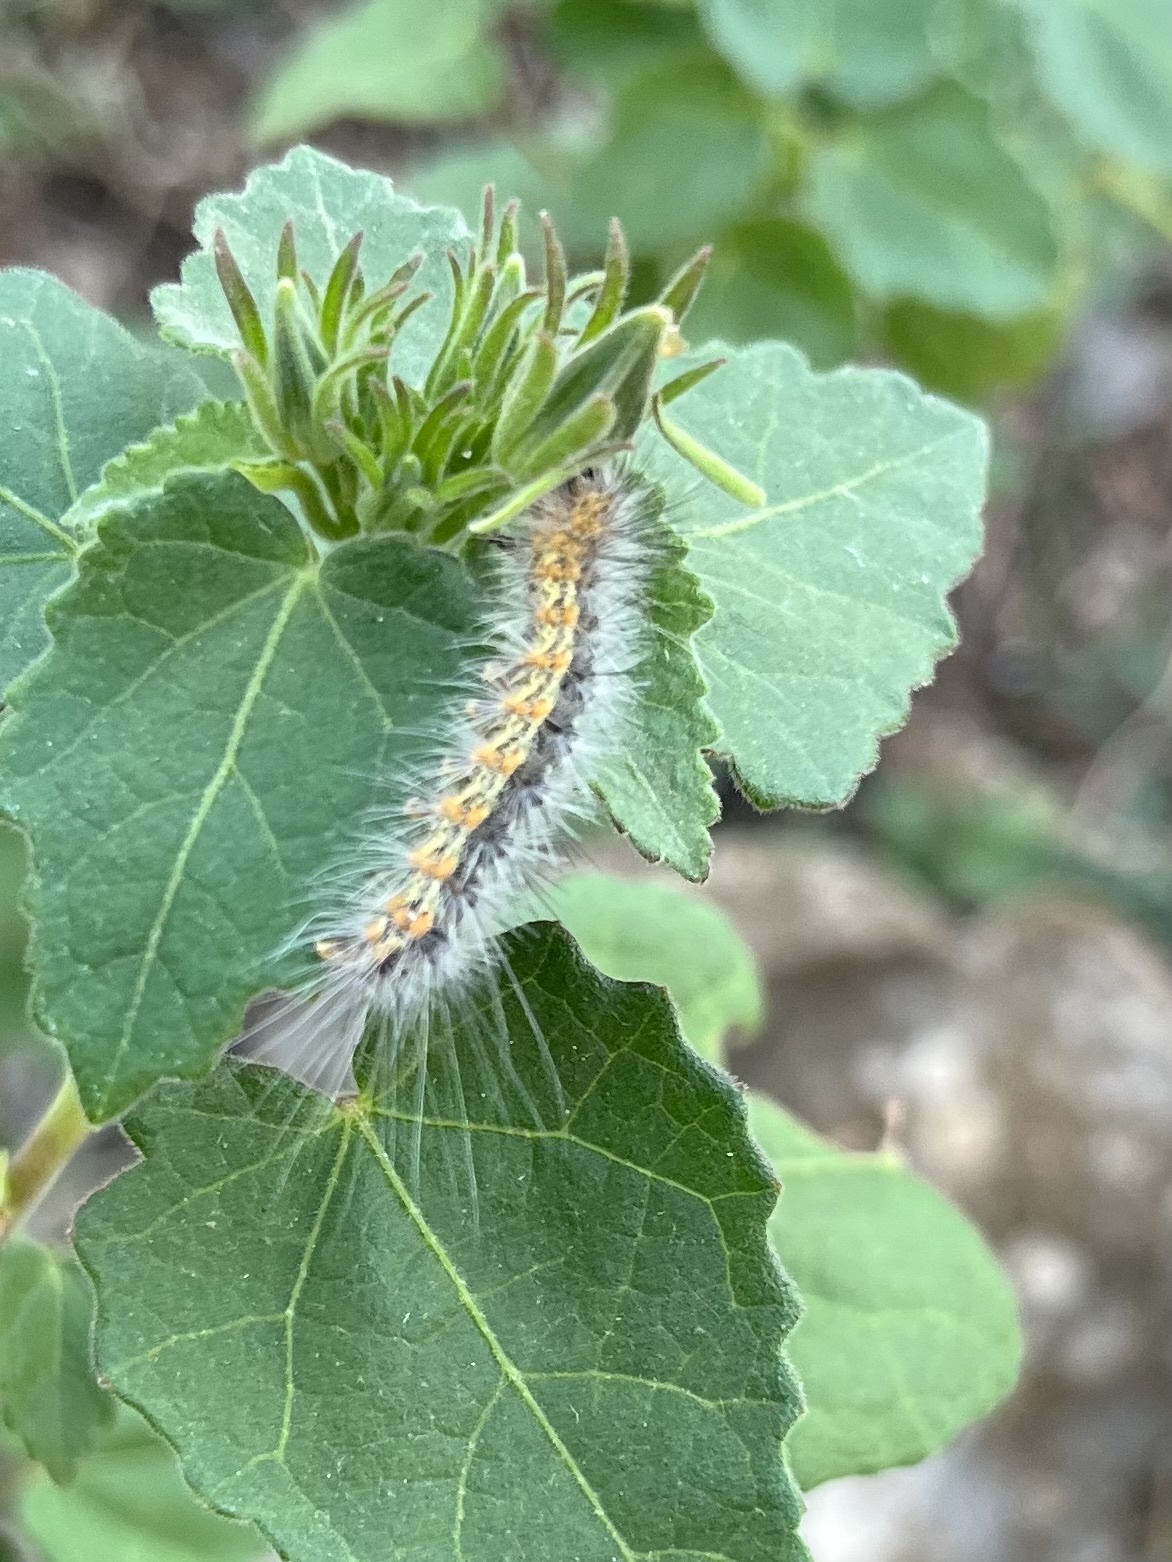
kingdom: Animalia
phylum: Arthropoda
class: Insecta
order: Lepidoptera
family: Erebidae
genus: Hyphantria
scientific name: Hyphantria cunea
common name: American white moth
